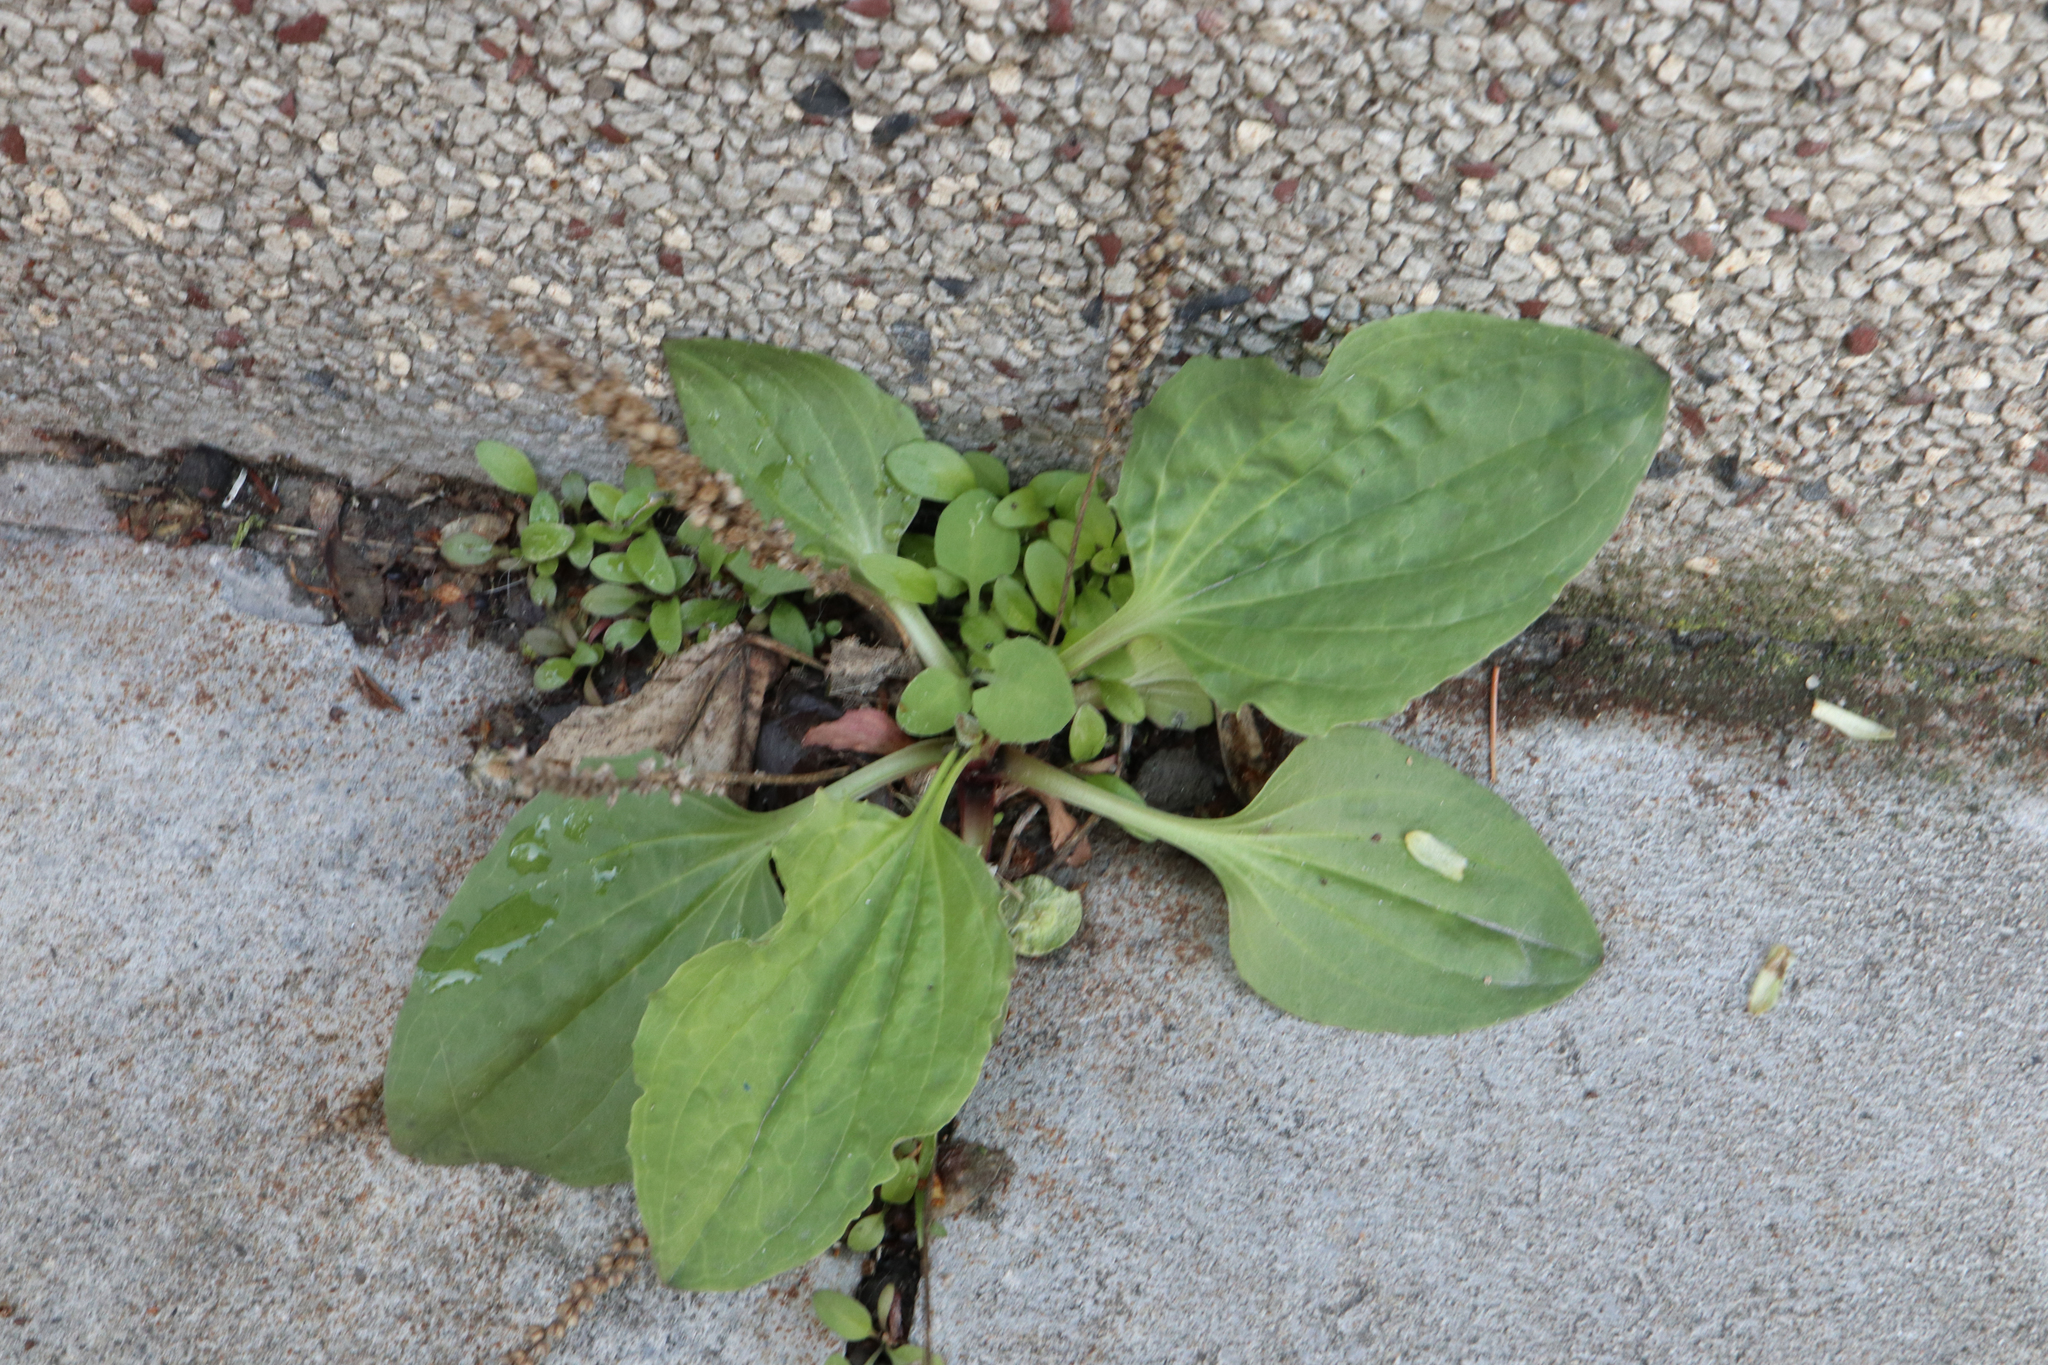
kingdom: Plantae
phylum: Tracheophyta
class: Magnoliopsida
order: Lamiales
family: Plantaginaceae
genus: Plantago
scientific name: Plantago major
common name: Common plantain
